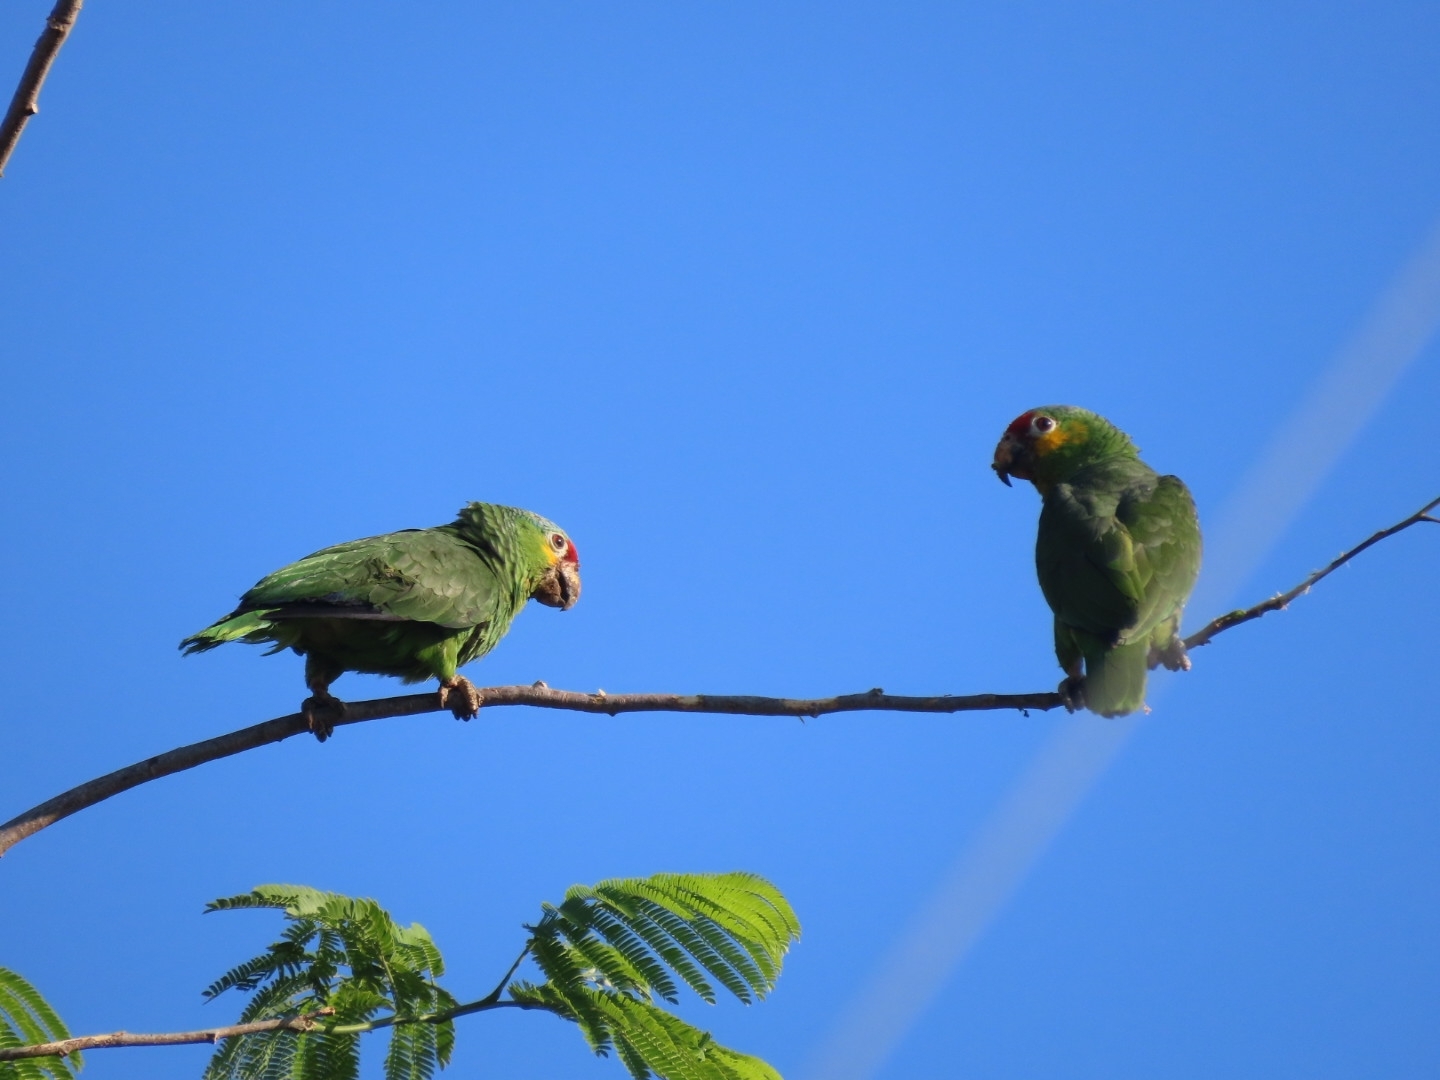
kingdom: Animalia
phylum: Chordata
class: Aves
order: Psittaciformes
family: Psittacidae
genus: Amazona
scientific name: Amazona autumnalis
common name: Red-lored amazon
